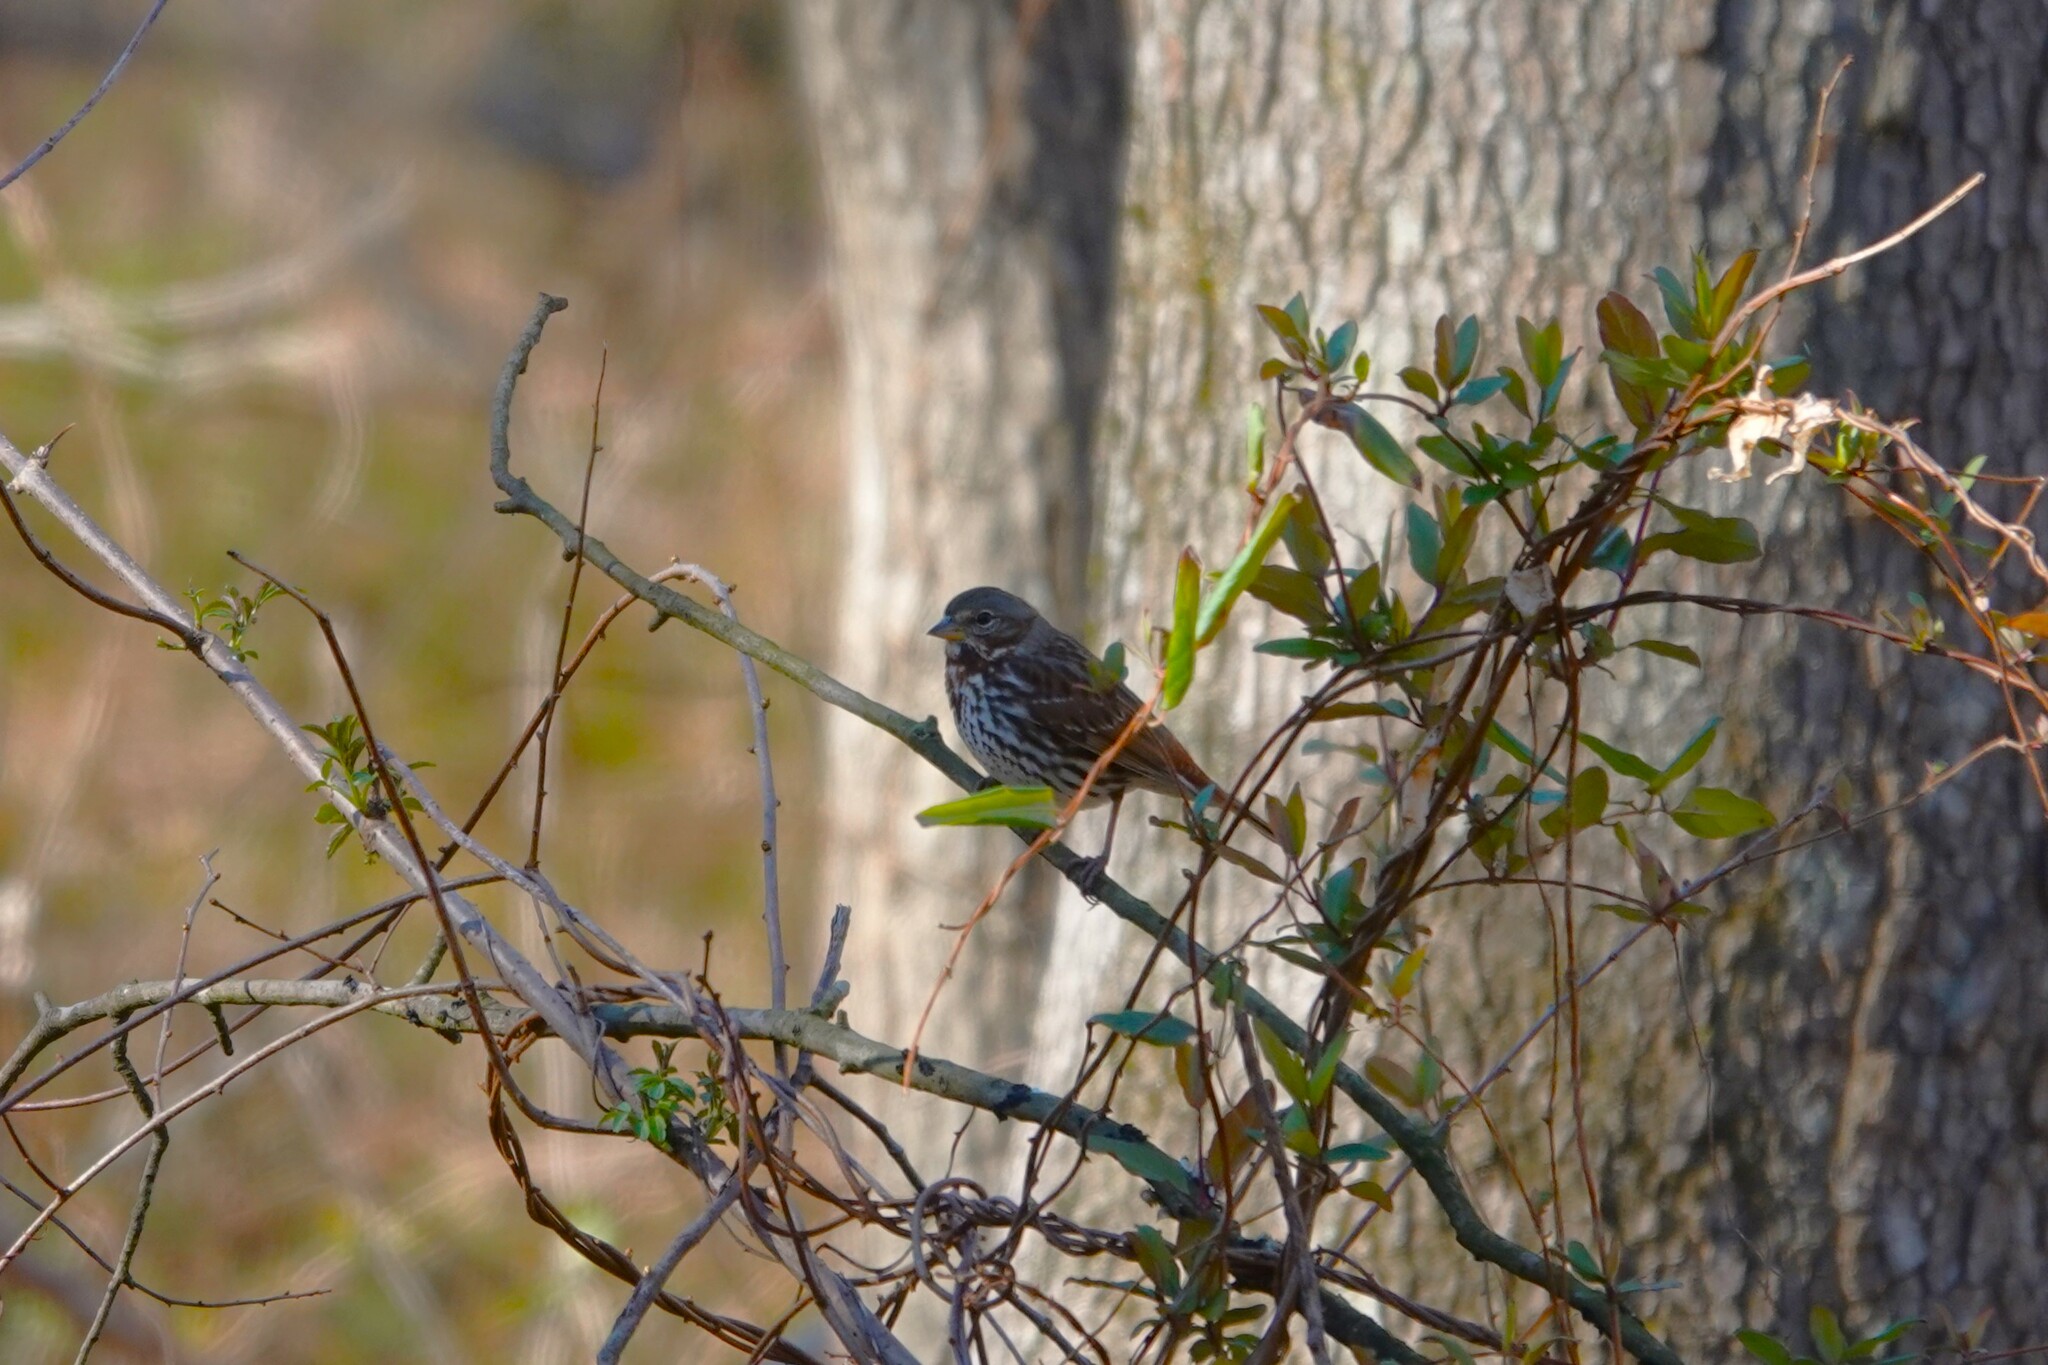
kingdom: Animalia
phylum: Chordata
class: Aves
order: Passeriformes
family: Passerellidae
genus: Passerella
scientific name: Passerella iliaca
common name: Fox sparrow
